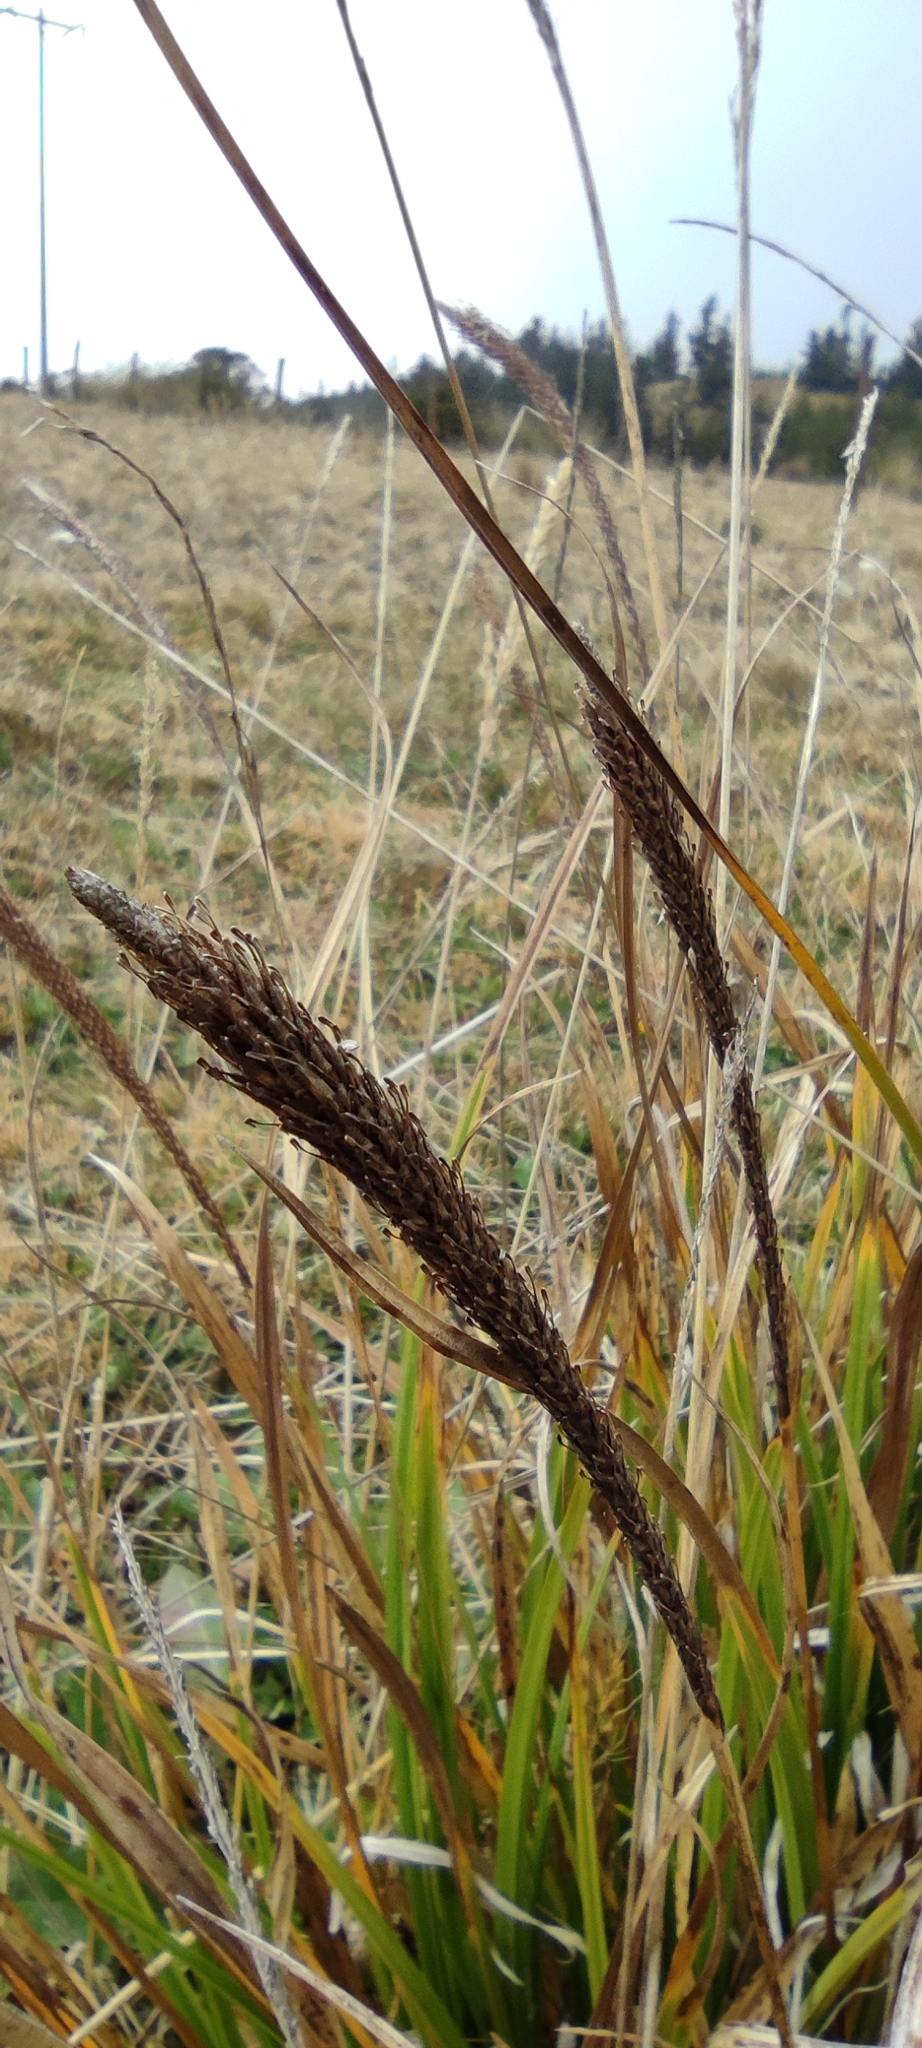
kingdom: Plantae
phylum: Tracheophyta
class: Liliopsida
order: Poales
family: Cyperaceae
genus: Carex
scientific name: Carex phleoides
